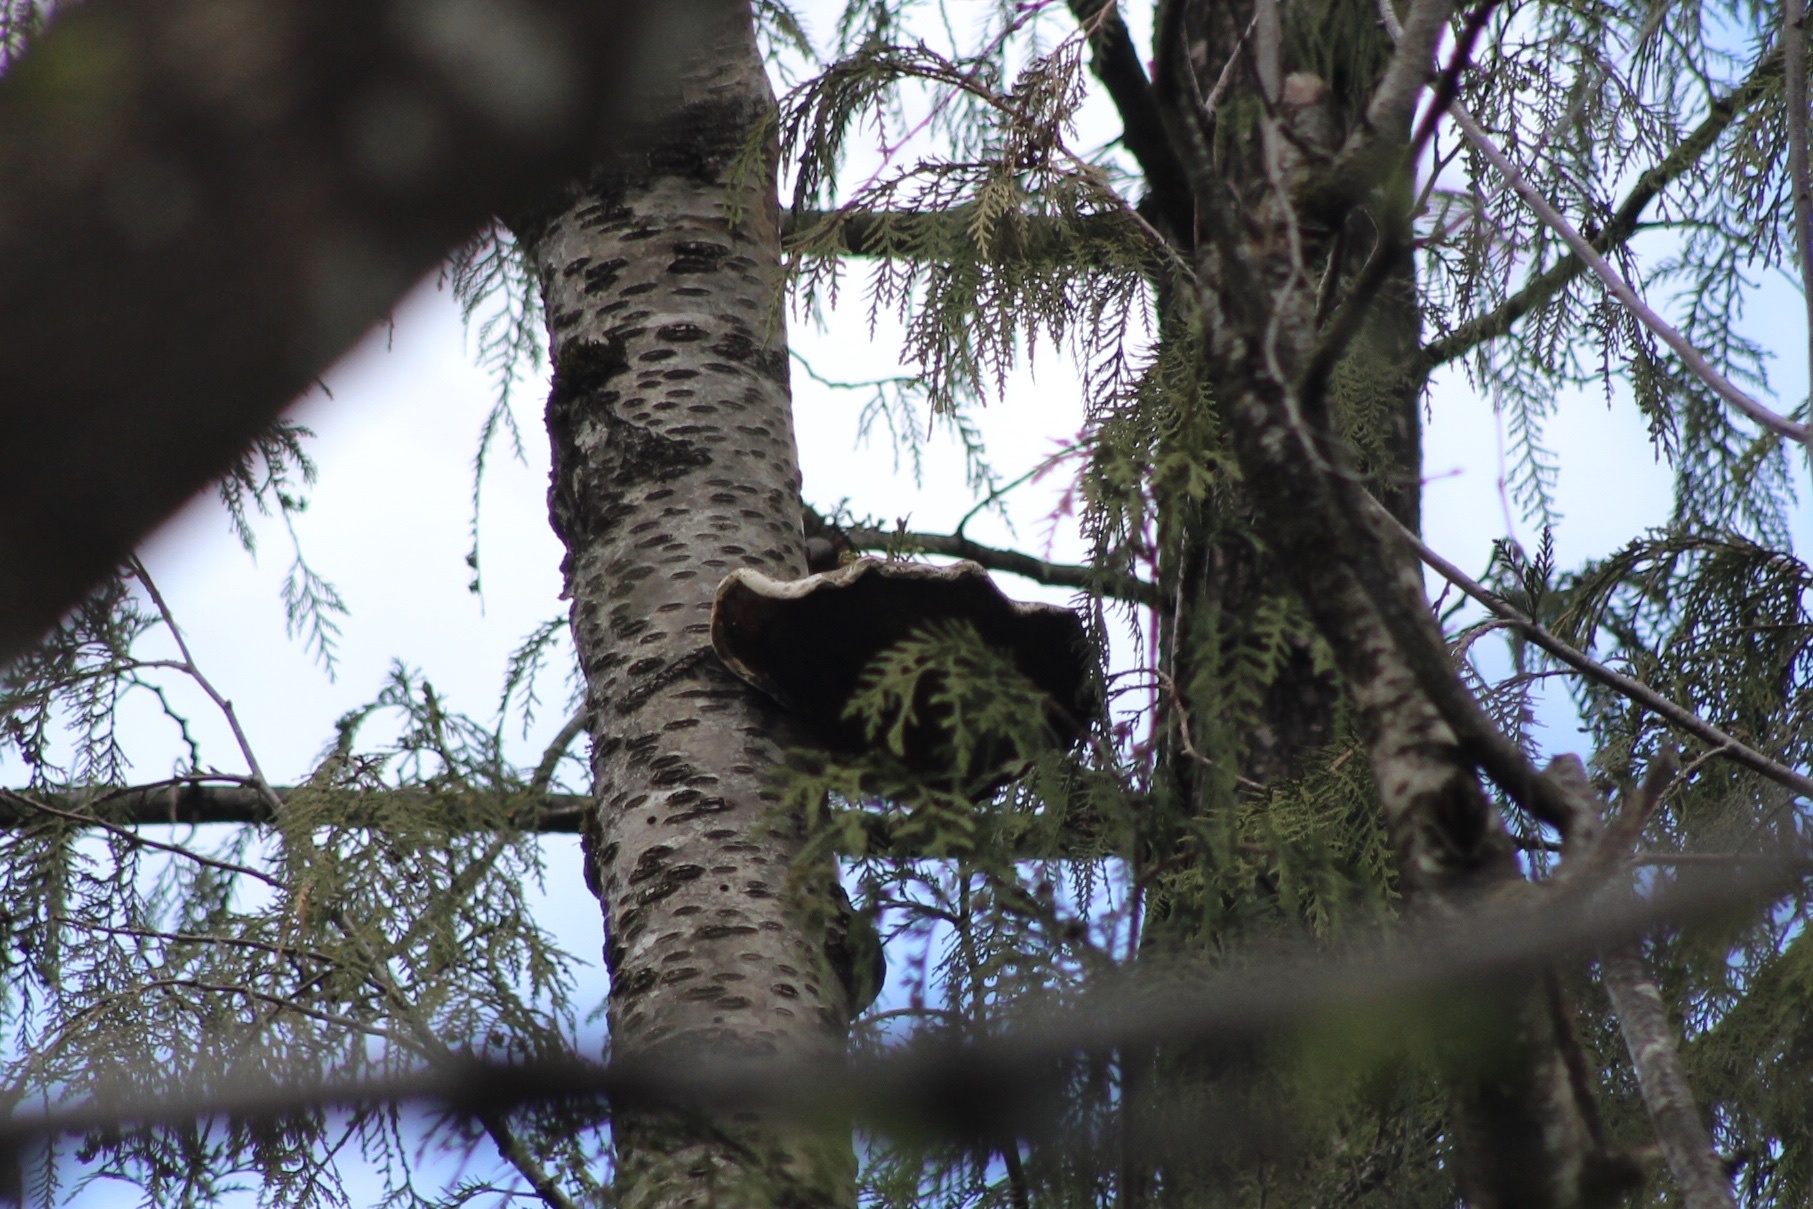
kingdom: Fungi
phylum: Basidiomycota
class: Agaricomycetes
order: Polyporales
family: Fomitopsidaceae
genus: Fomitopsis
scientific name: Fomitopsis betulina
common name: Birch polypore
